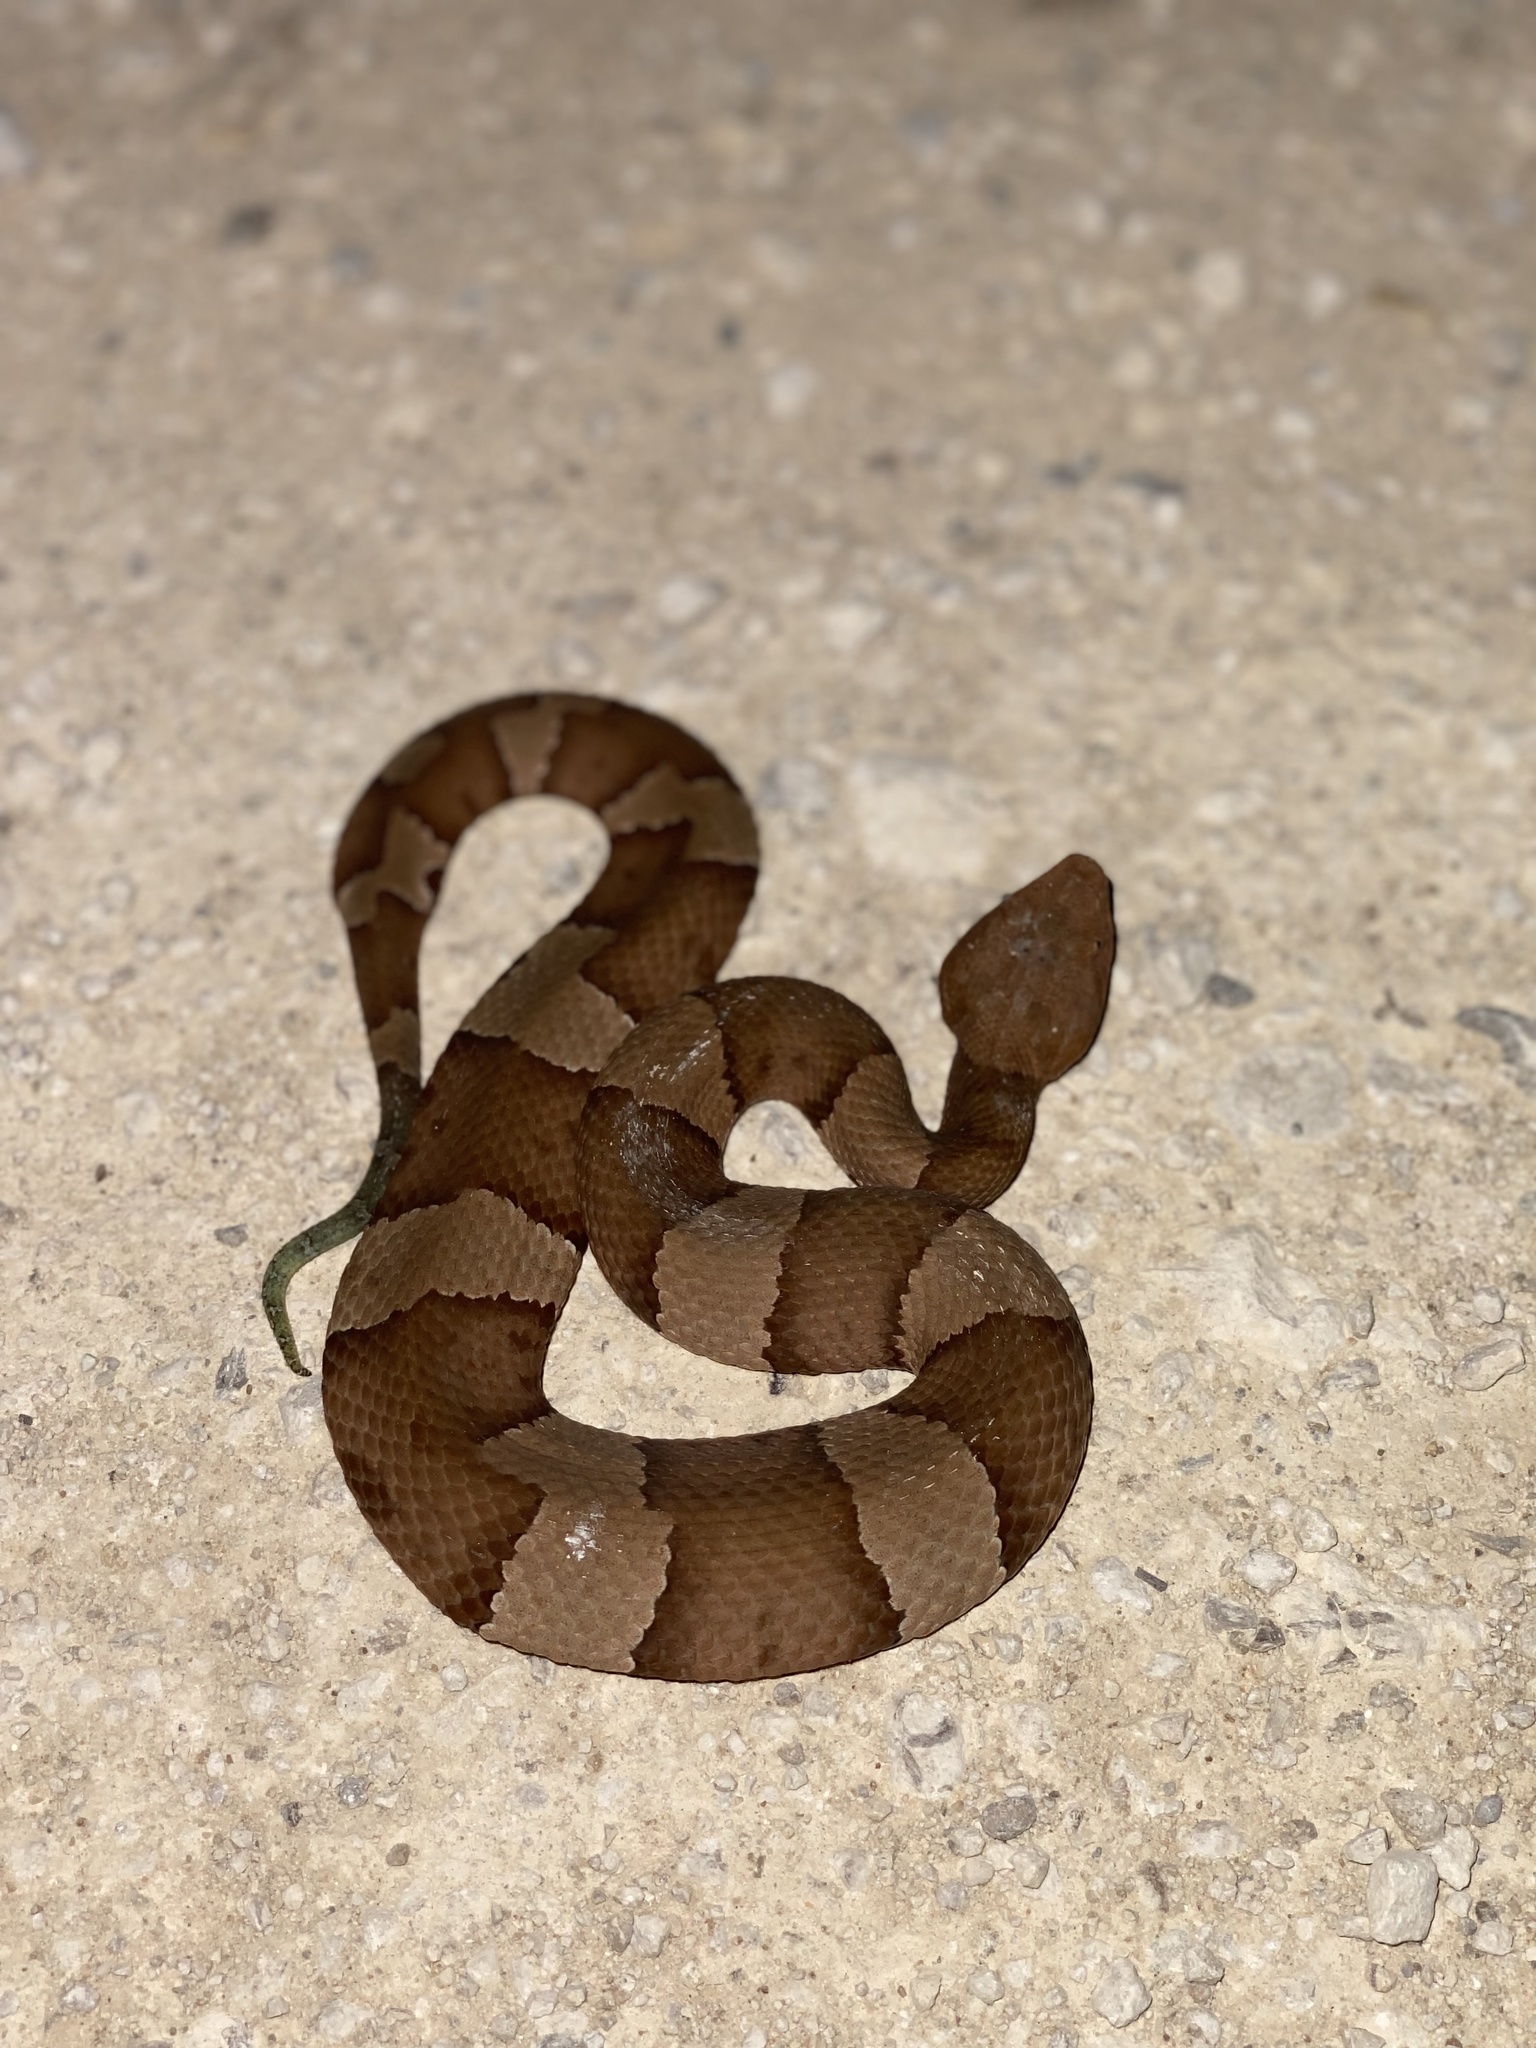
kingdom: Animalia
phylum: Chordata
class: Squamata
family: Viperidae
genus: Agkistrodon
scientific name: Agkistrodon laticinctus
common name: Broad-banded copperhead
